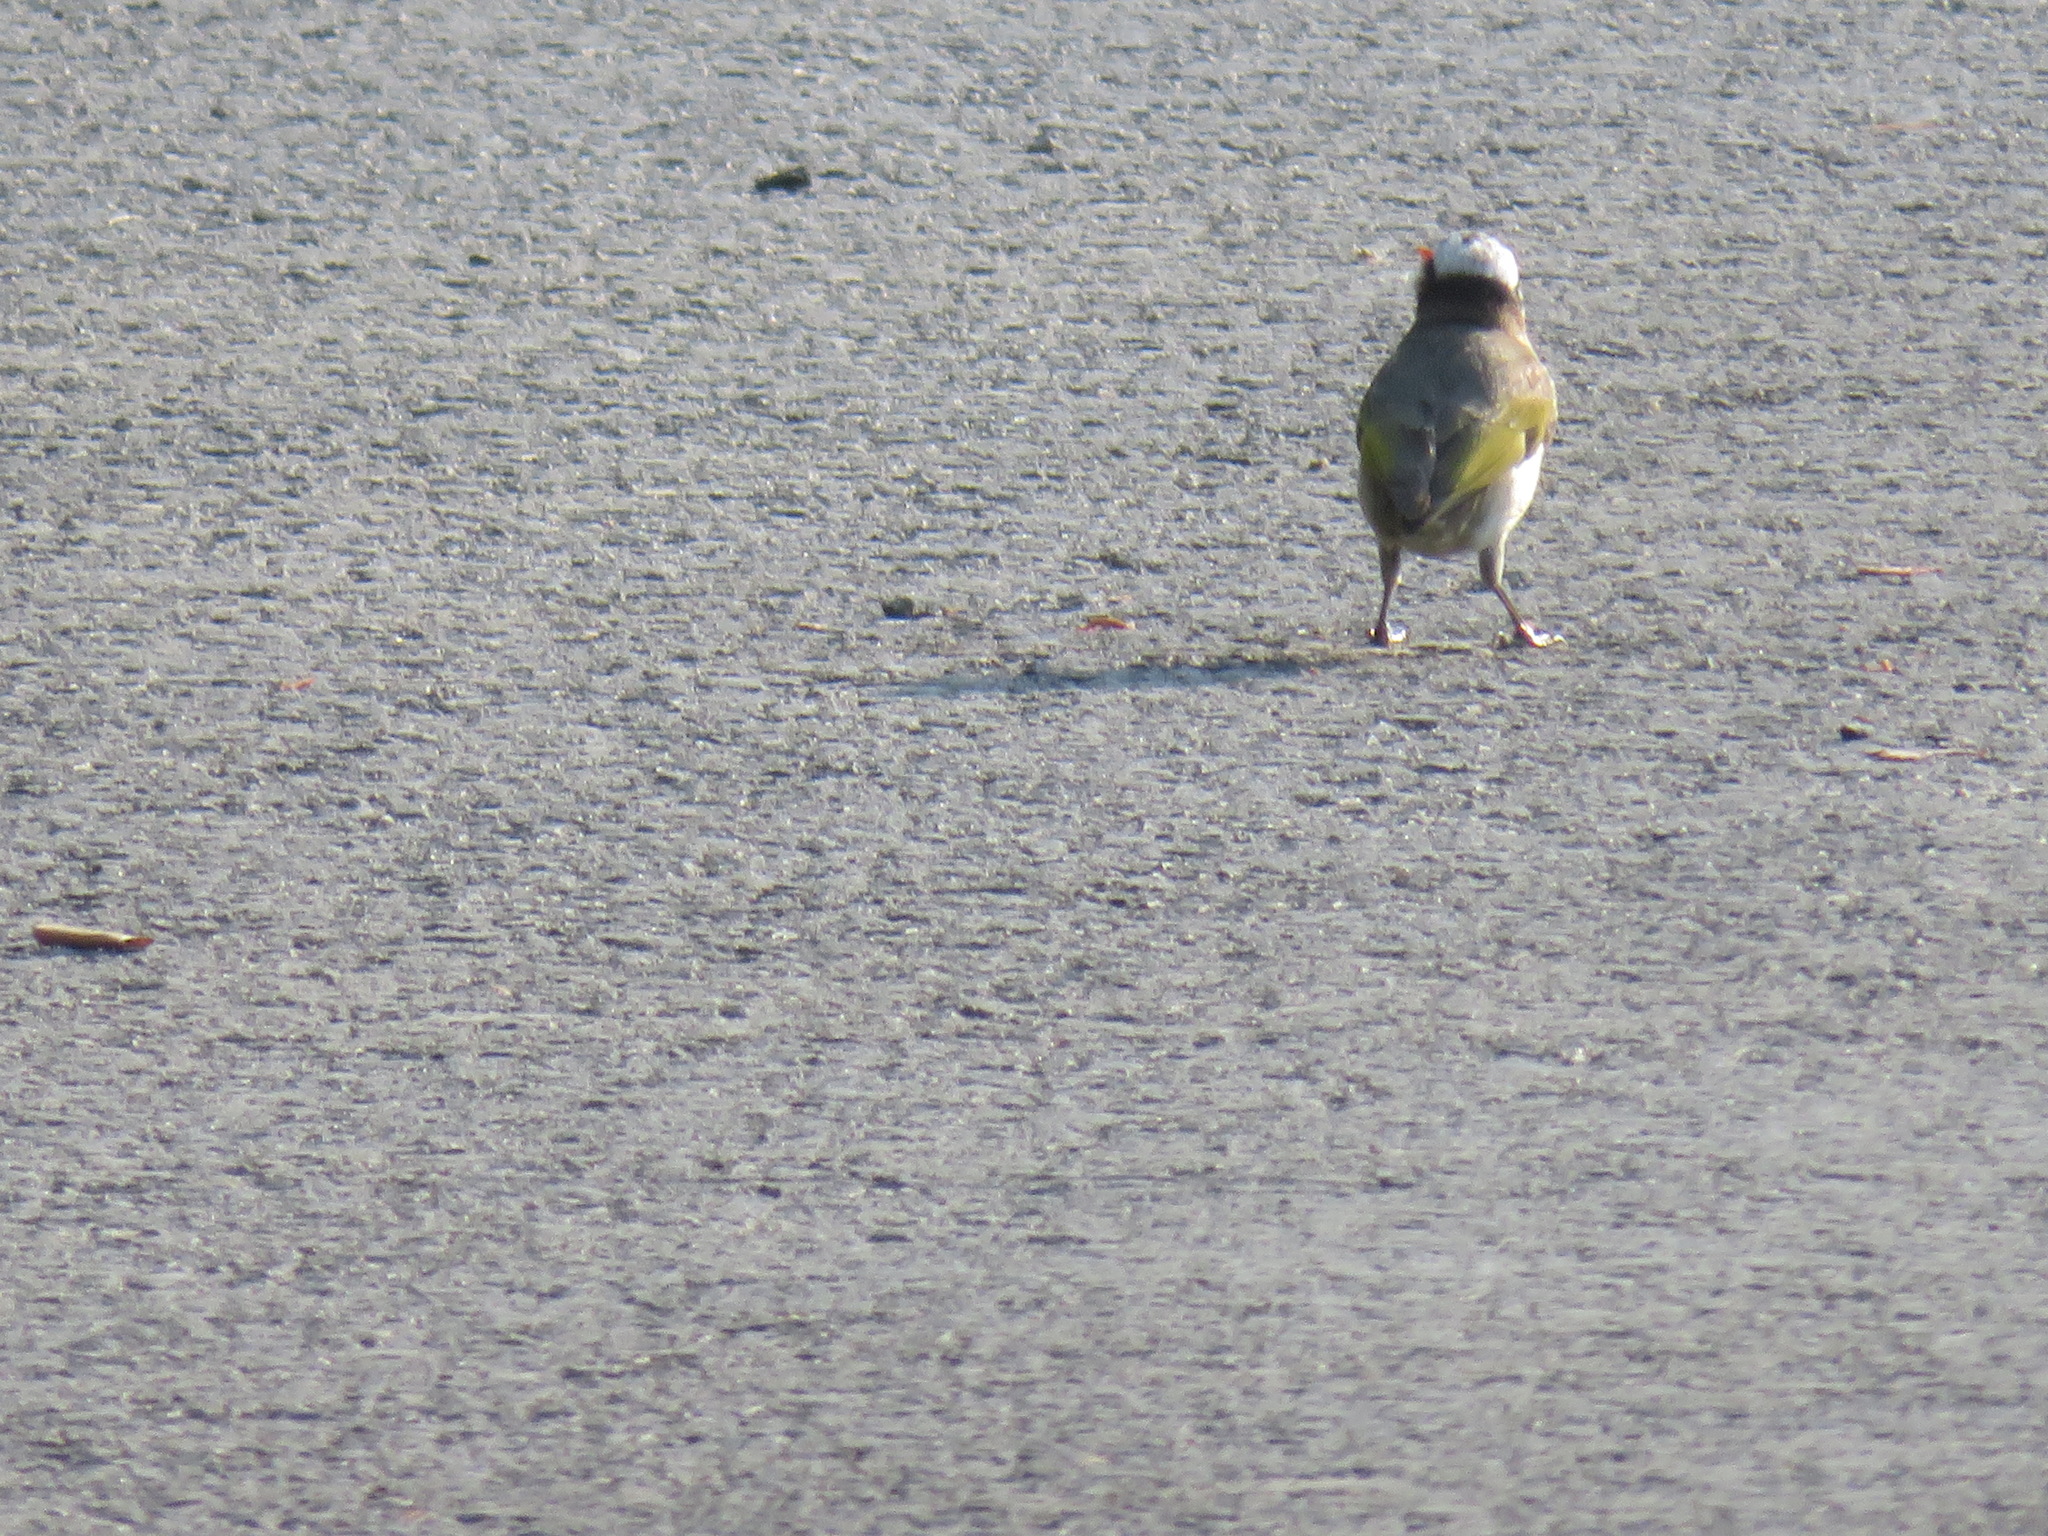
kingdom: Animalia
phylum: Chordata
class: Aves
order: Passeriformes
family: Pycnonotidae
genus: Pycnonotus
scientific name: Pycnonotus sinensis
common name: Light-vented bulbul
